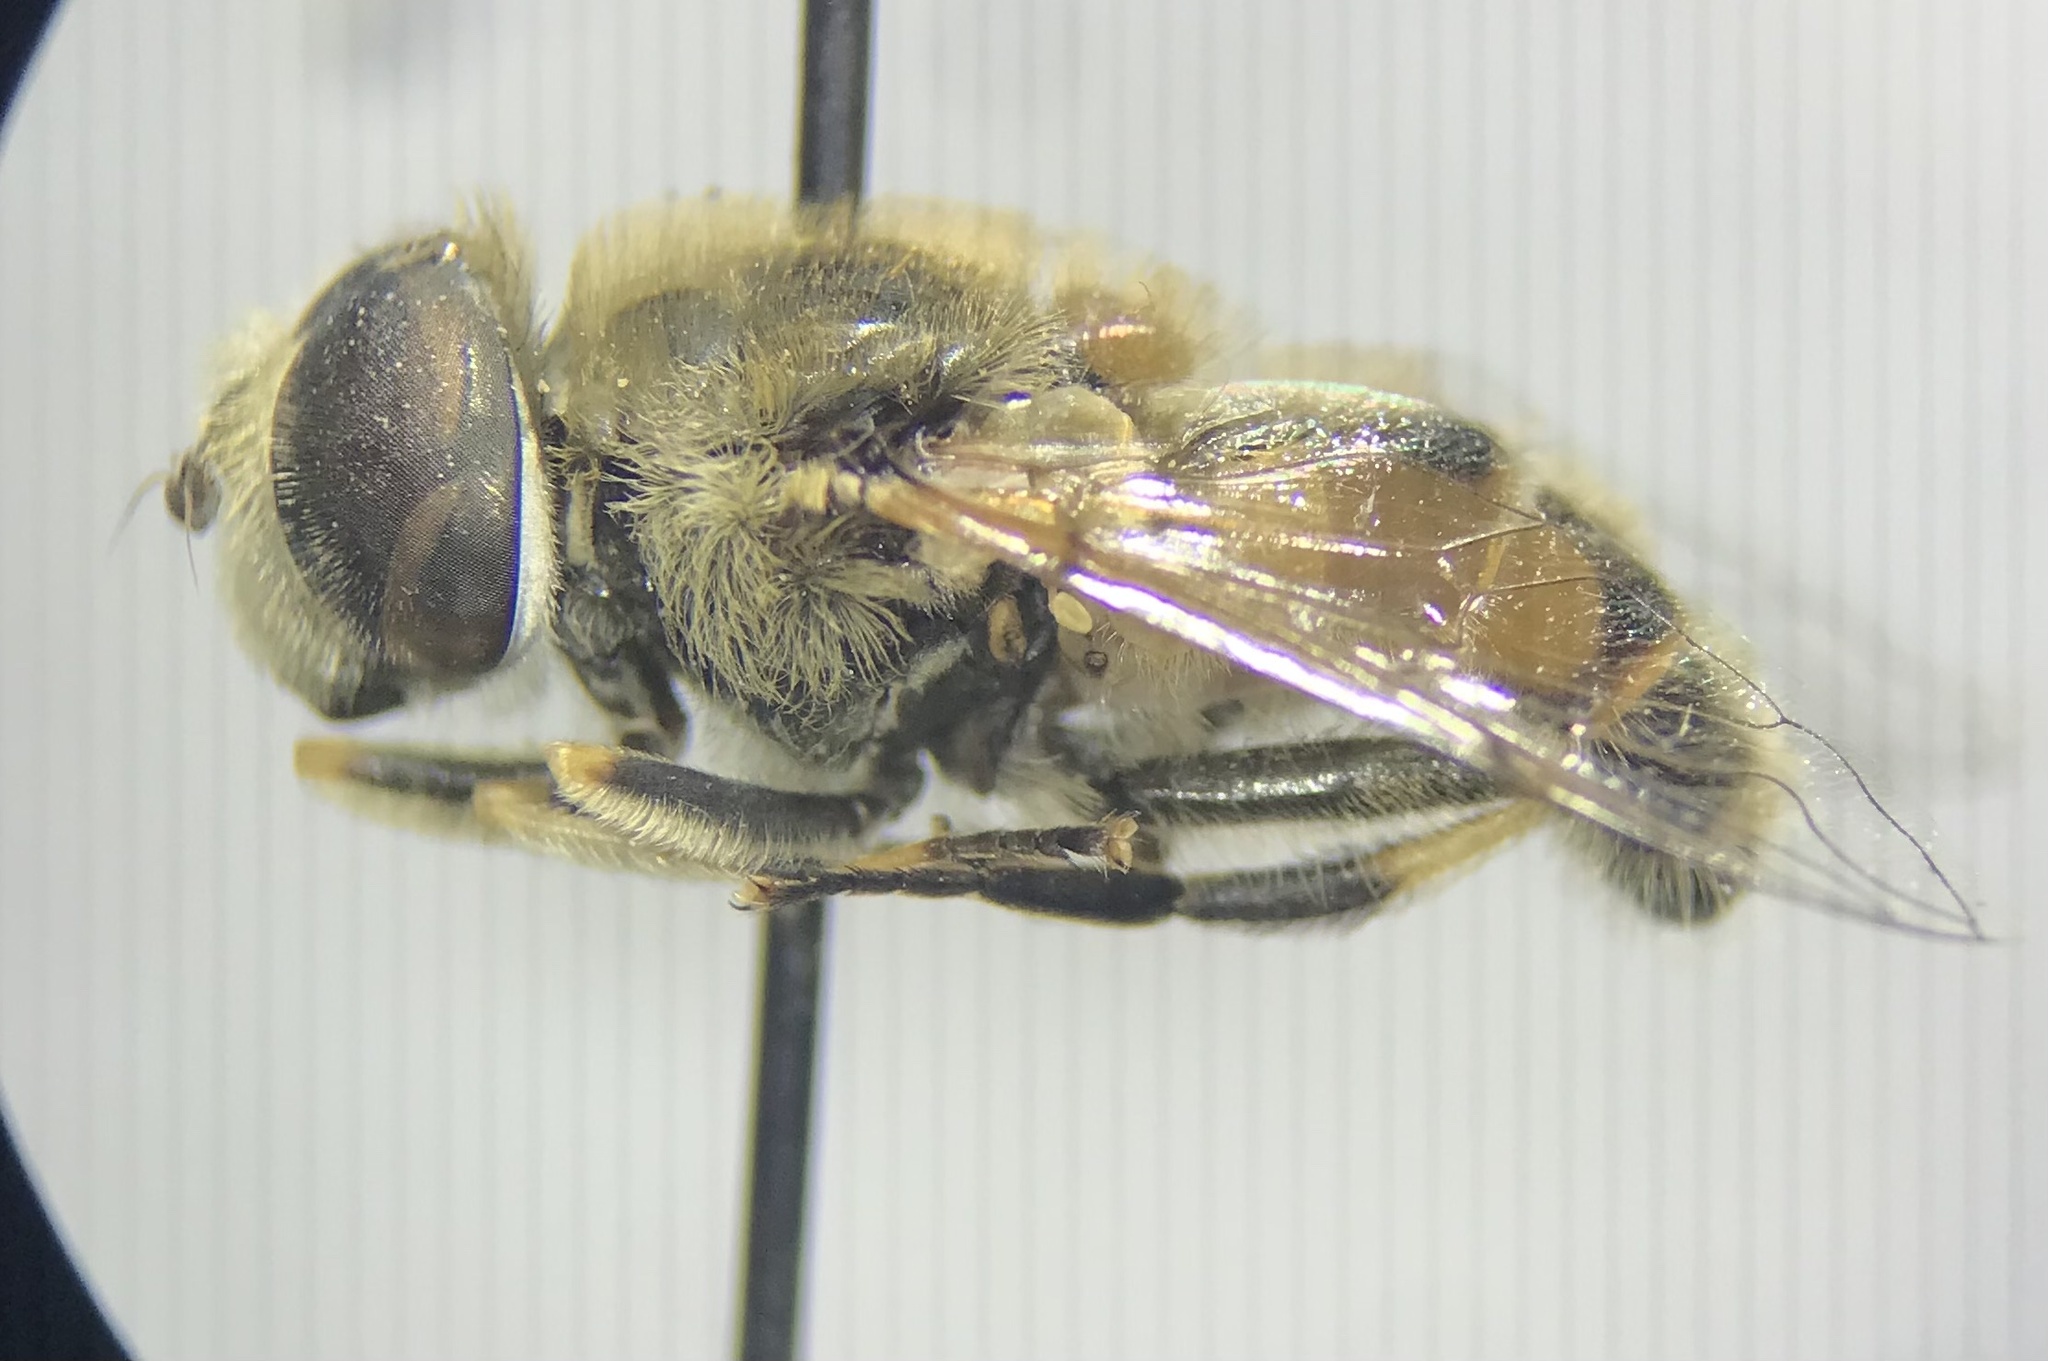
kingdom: Animalia
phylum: Arthropoda
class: Insecta
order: Diptera
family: Syrphidae
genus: Eristalis
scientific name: Eristalis arbustorum
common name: Hover fly
